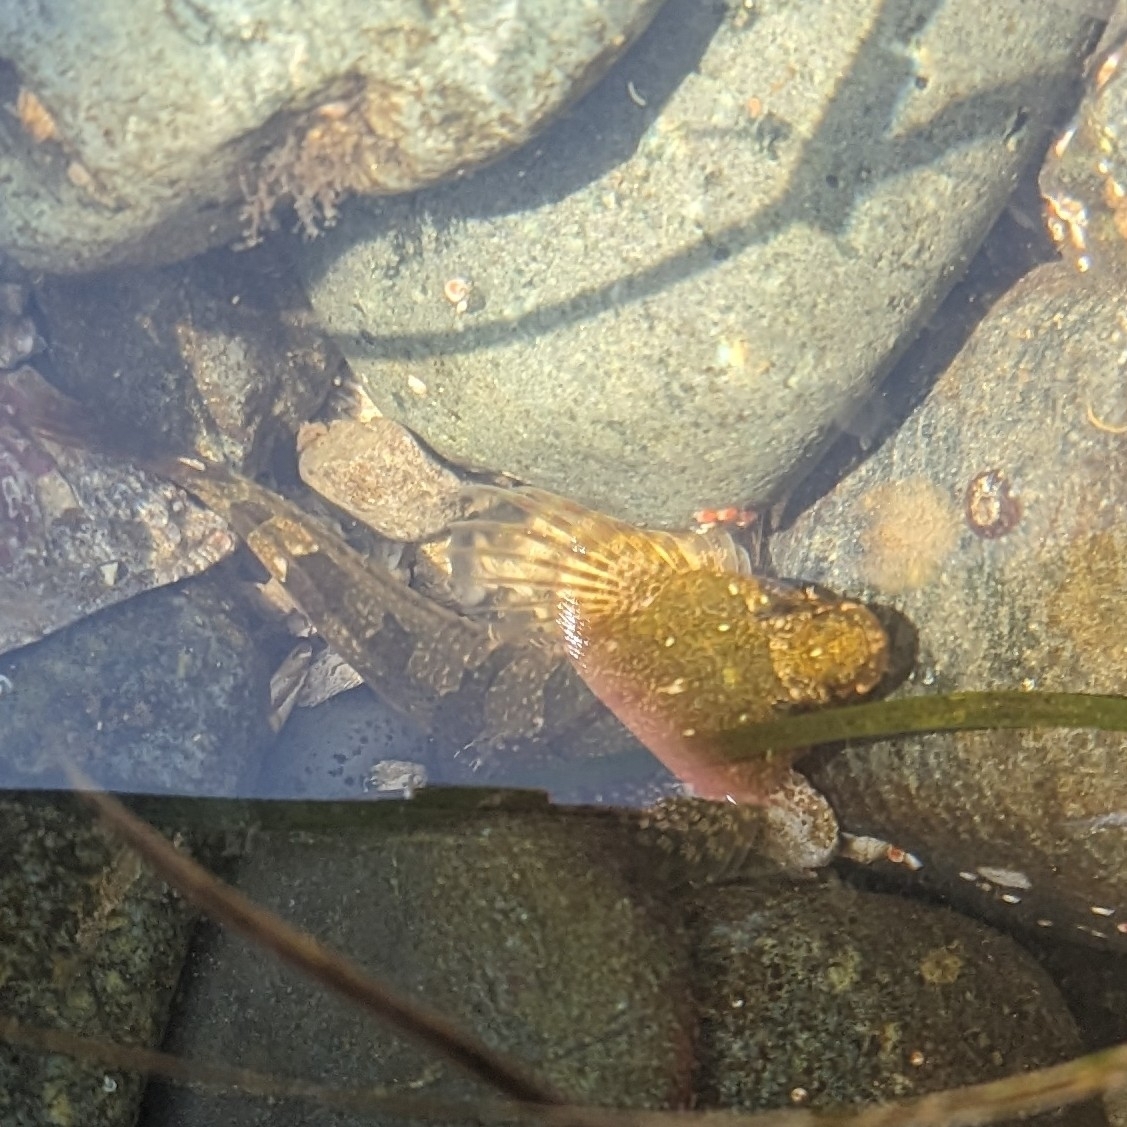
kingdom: Animalia
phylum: Chordata
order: Scorpaeniformes
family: Cottidae
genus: Oligocottus
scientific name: Oligocottus maculosus
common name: Tidepool sculpin
